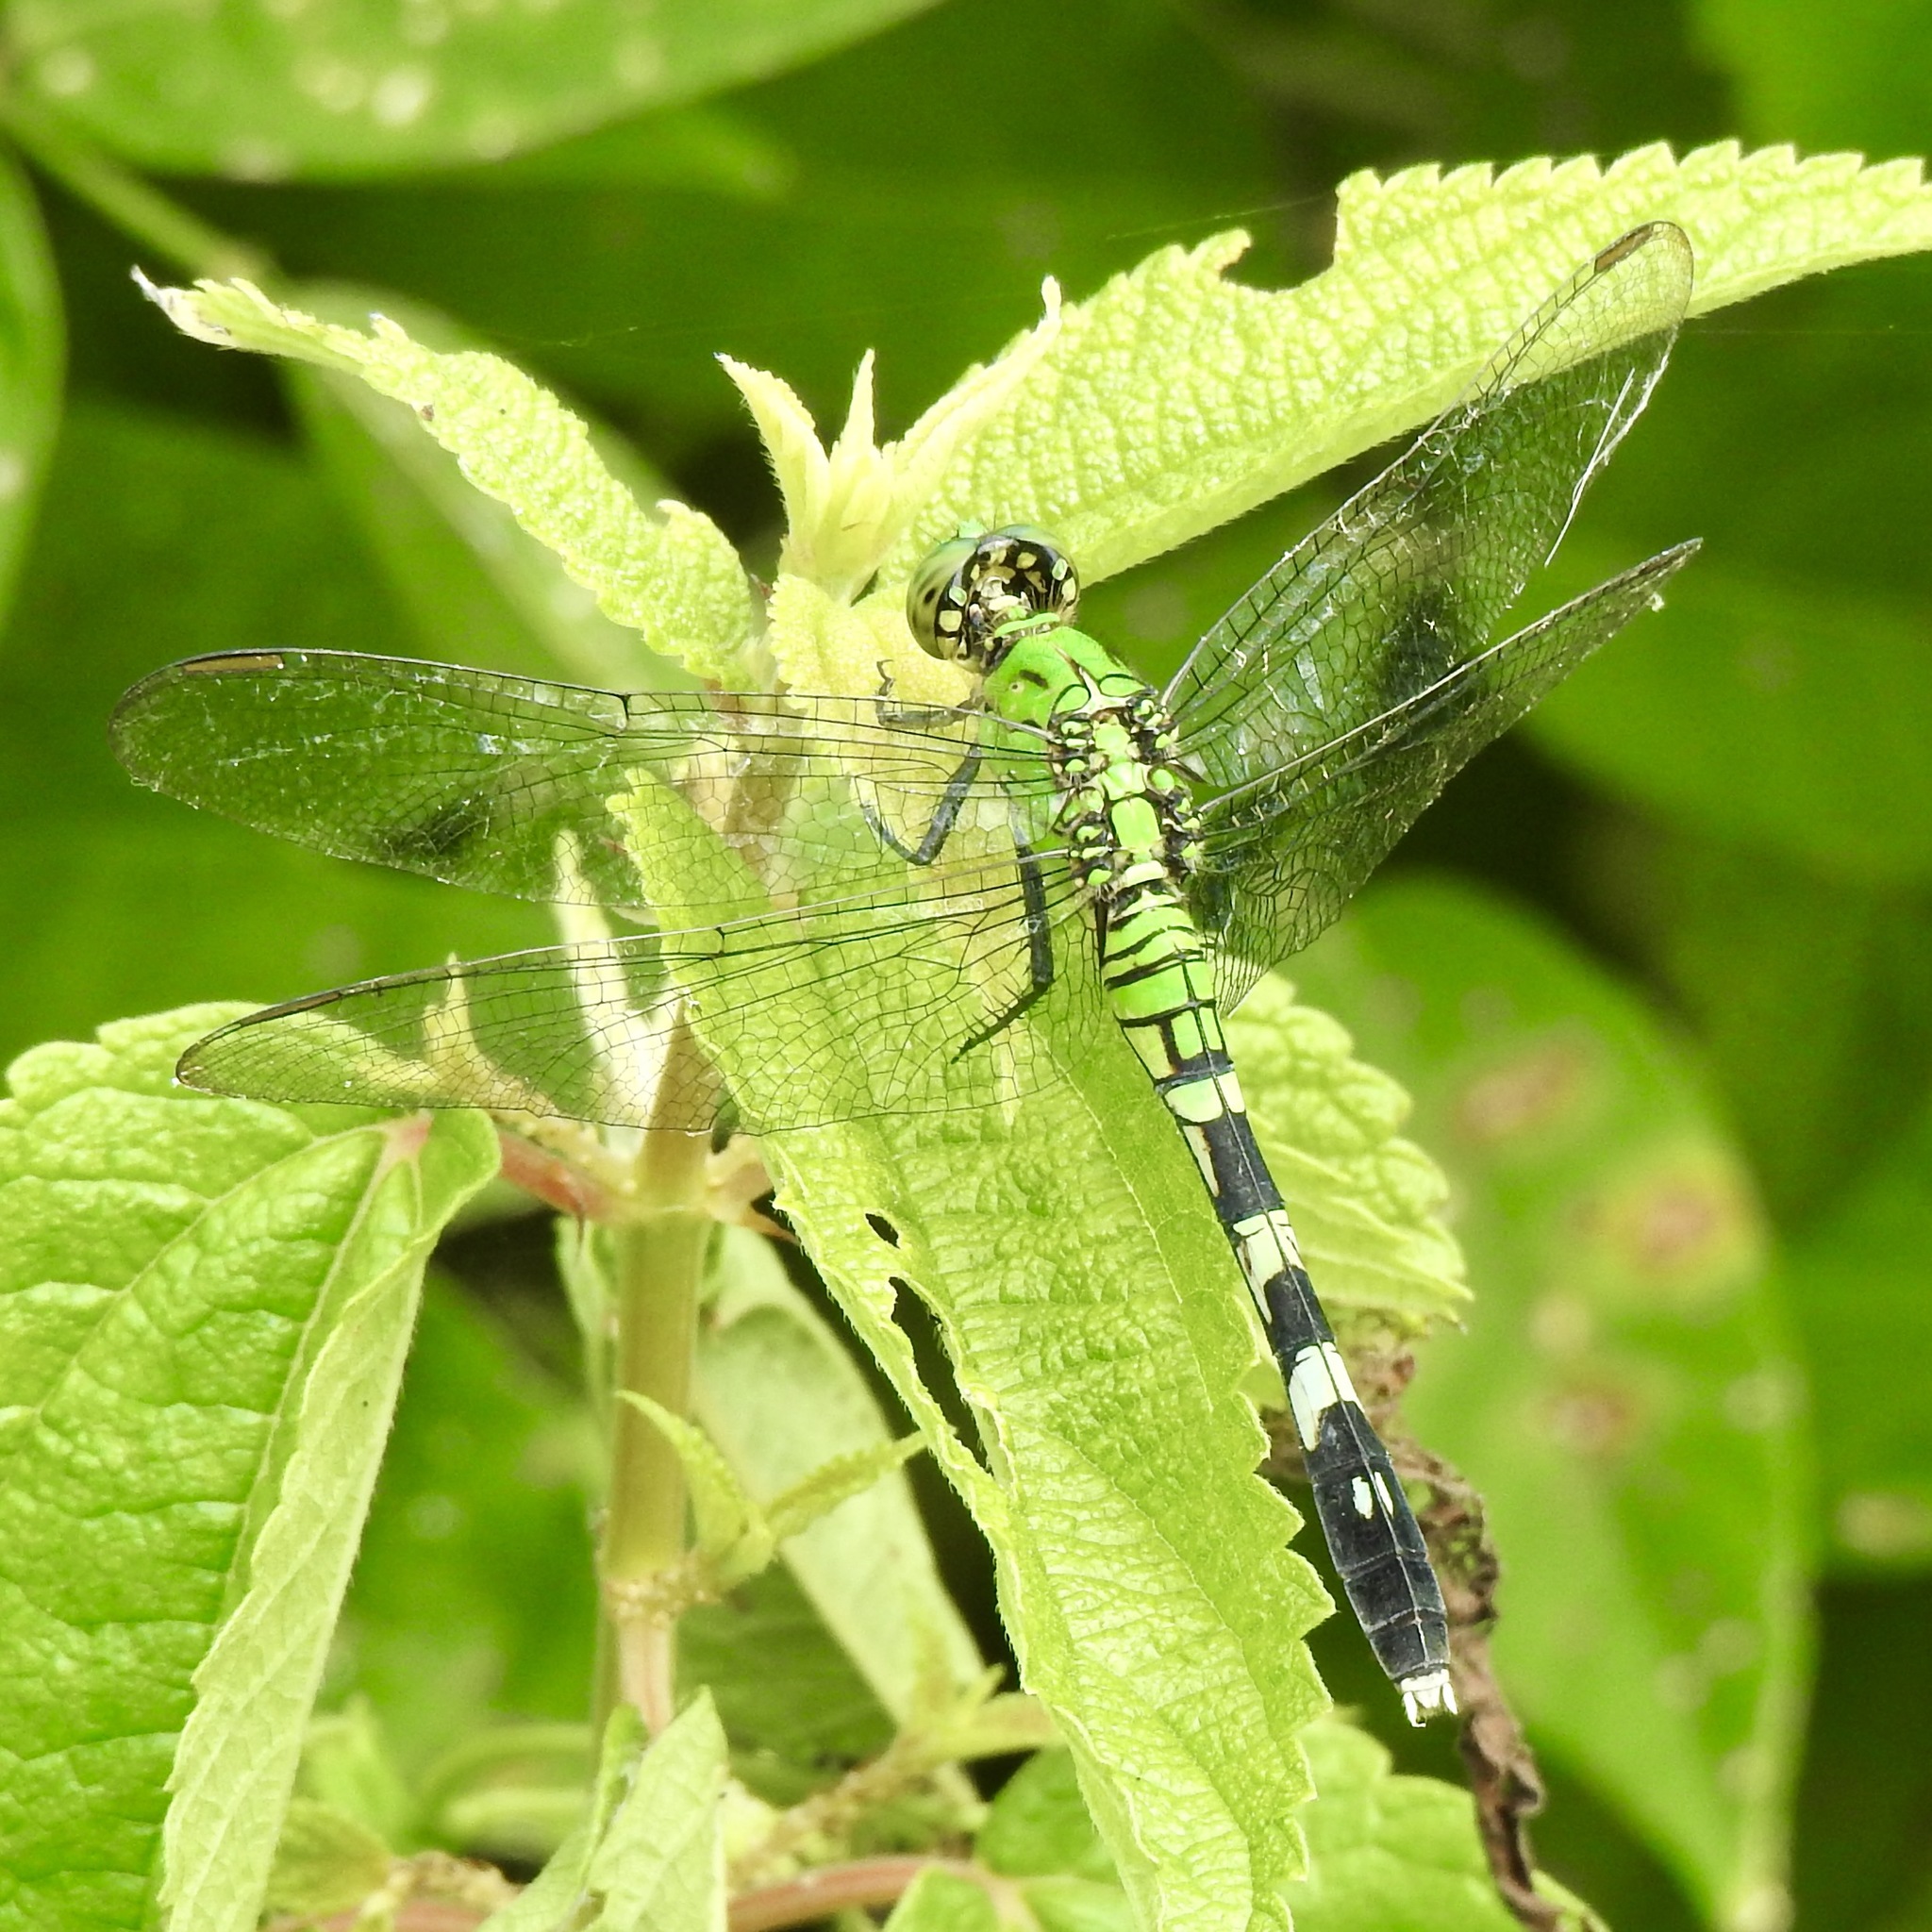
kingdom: Animalia
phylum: Arthropoda
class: Insecta
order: Odonata
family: Libellulidae
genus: Erythemis
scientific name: Erythemis simplicicollis
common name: Eastern pondhawk
